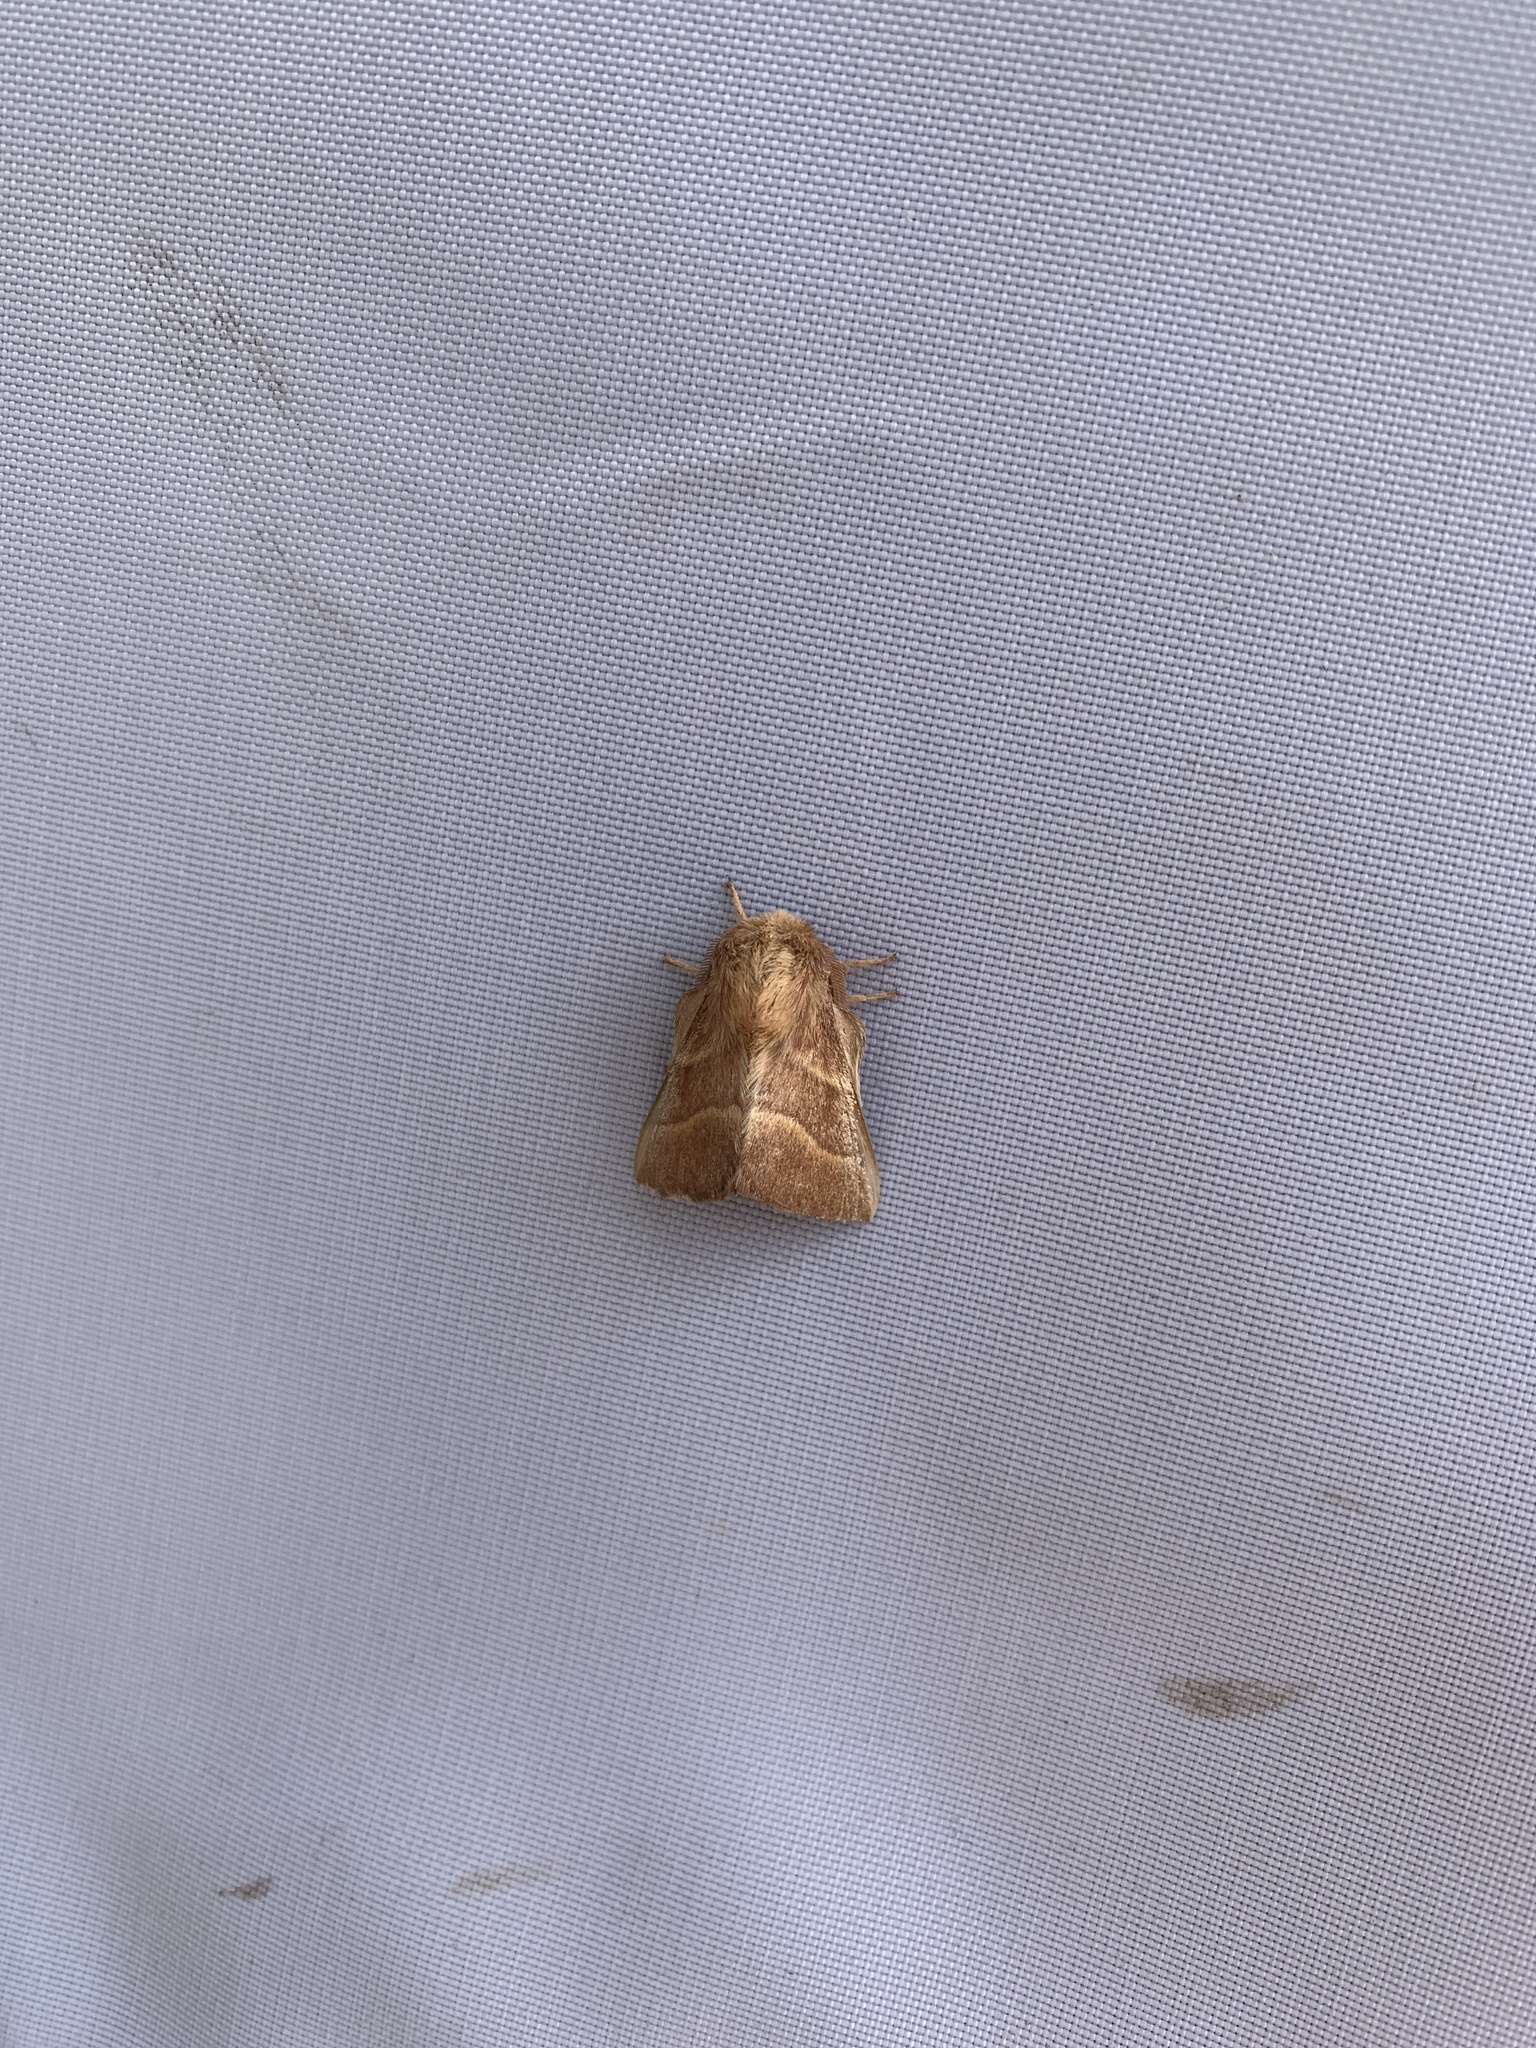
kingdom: Animalia
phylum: Arthropoda
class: Insecta
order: Lepidoptera
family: Lasiocampidae
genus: Malacosoma
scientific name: Malacosoma neustria
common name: The lackey
